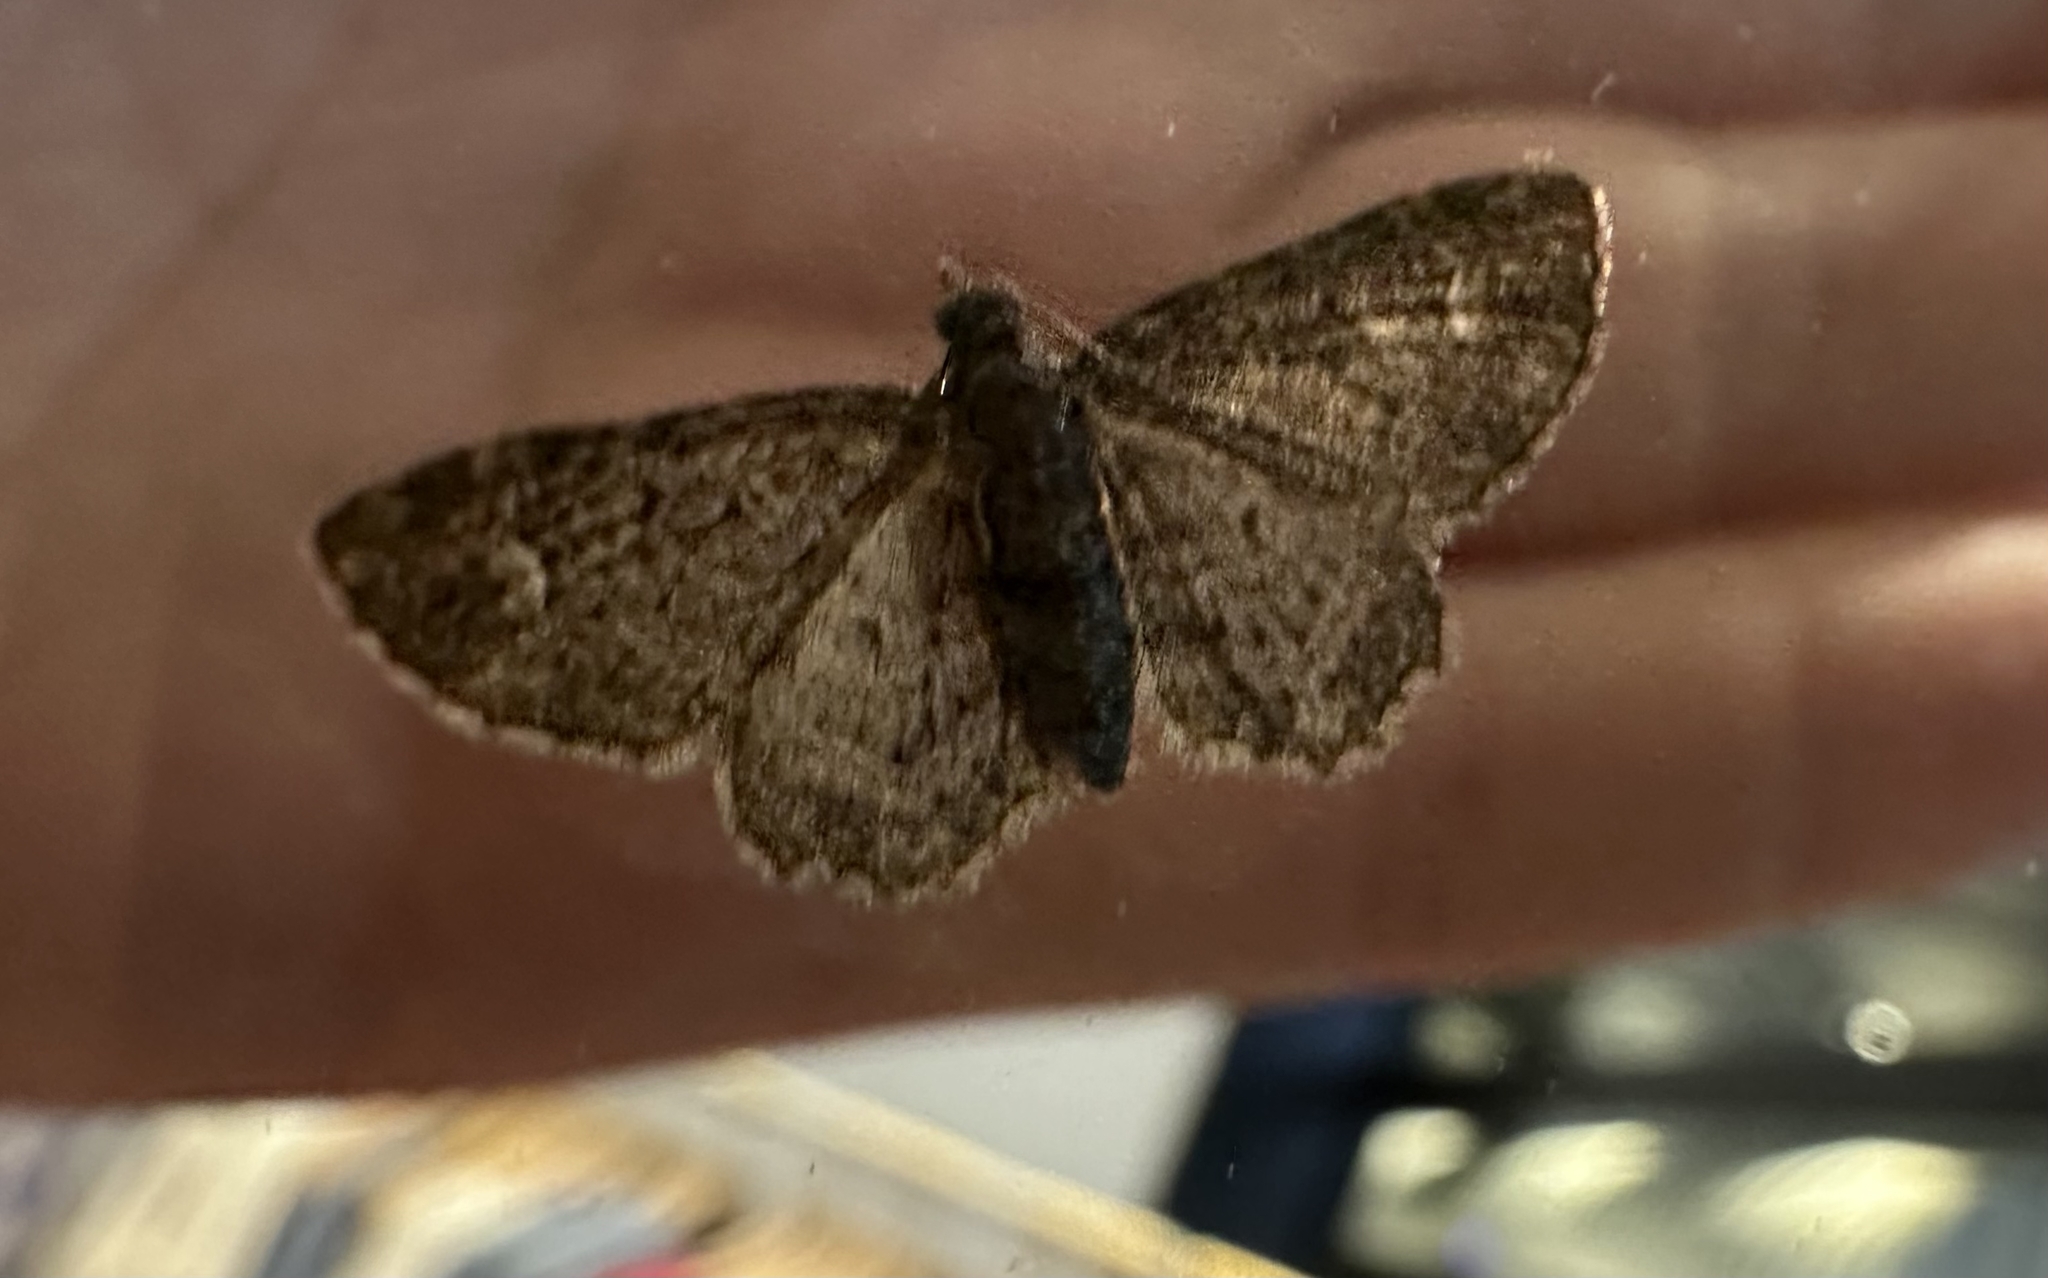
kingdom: Animalia
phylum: Arthropoda
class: Insecta
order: Lepidoptera
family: Geometridae
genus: Pasiphilodes
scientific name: Pasiphilodes testulata
